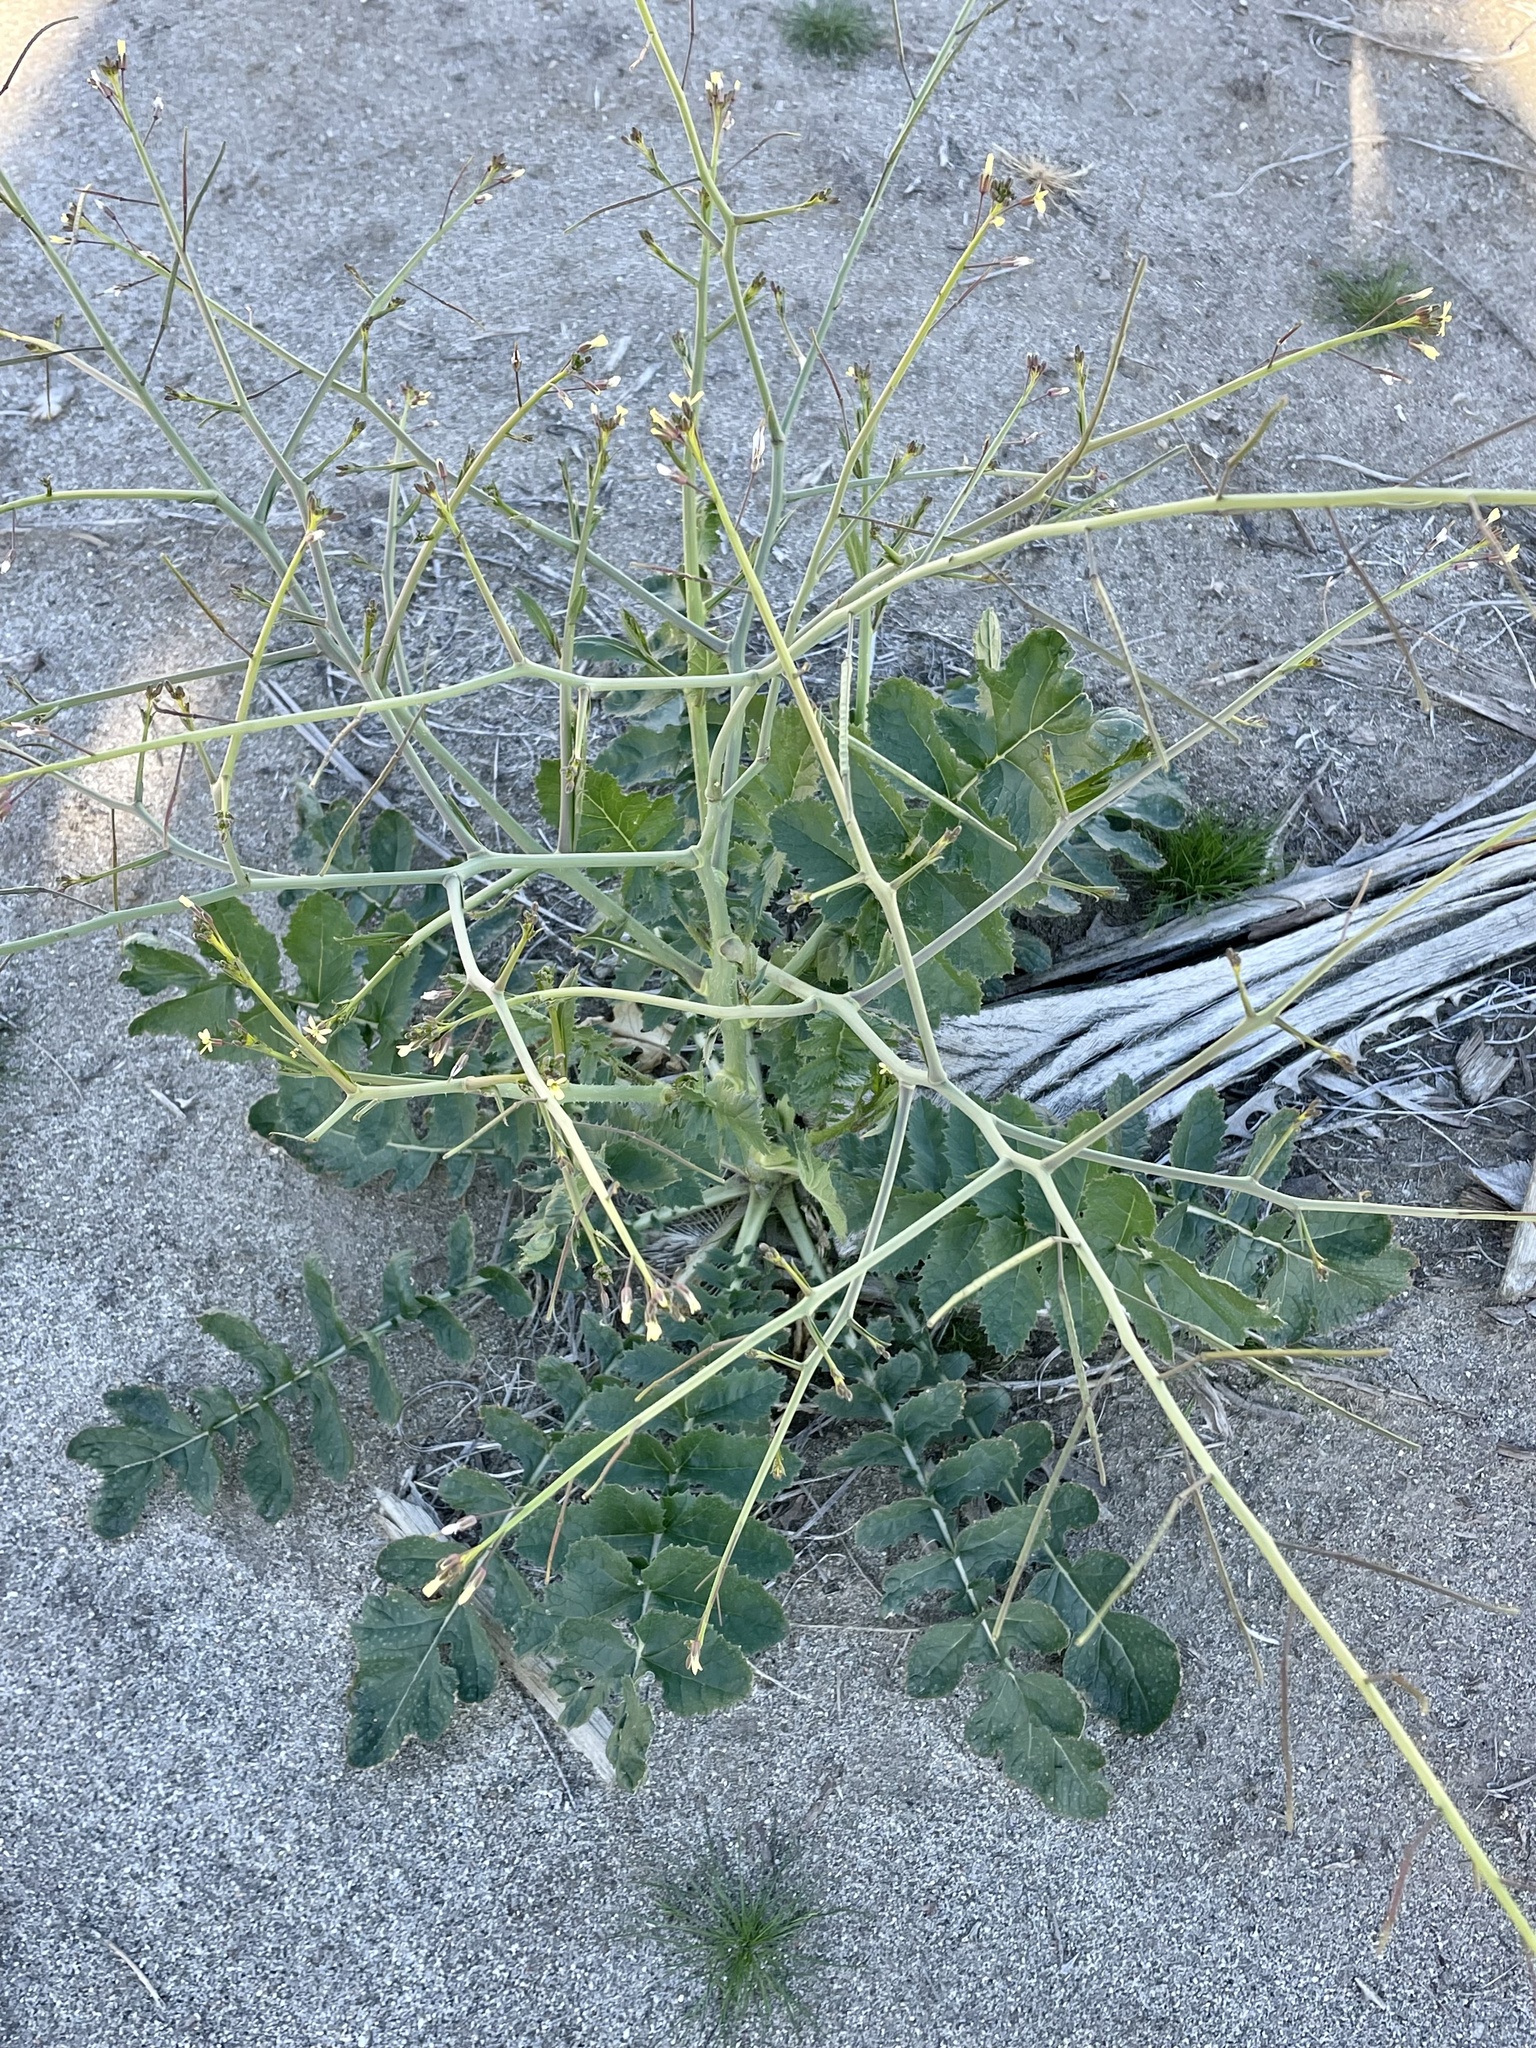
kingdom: Plantae
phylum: Tracheophyta
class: Magnoliopsida
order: Brassicales
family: Brassicaceae
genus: Brassica
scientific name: Brassica tournefortii
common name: Pale cabbage
